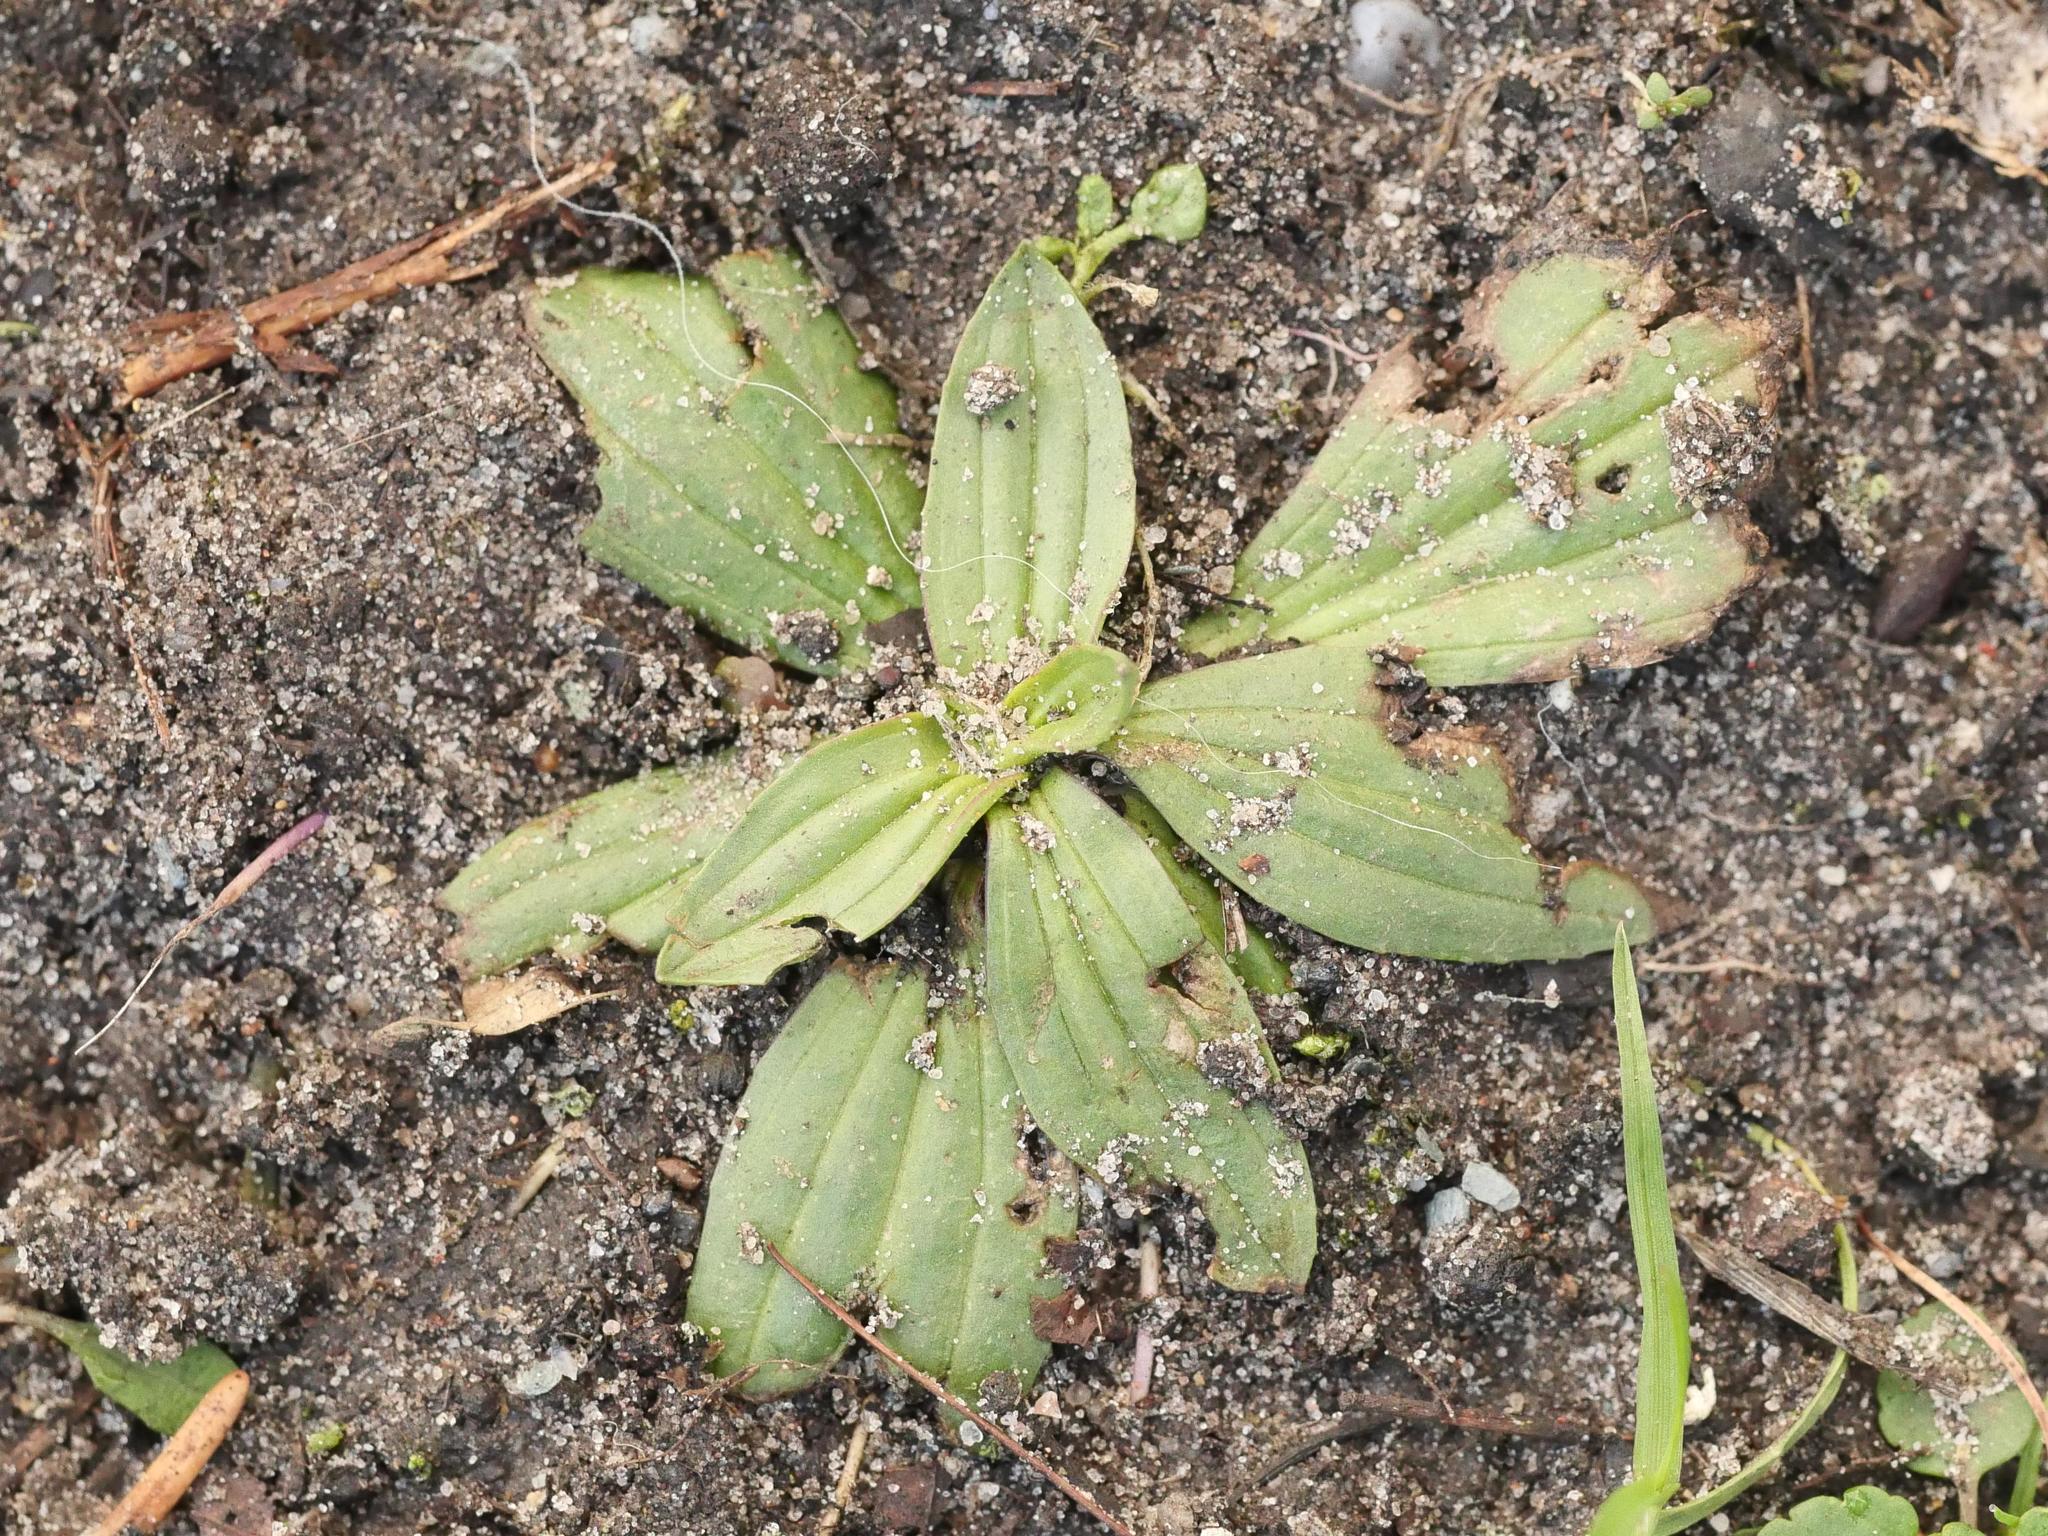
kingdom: Plantae
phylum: Tracheophyta
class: Magnoliopsida
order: Lamiales
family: Plantaginaceae
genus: Plantago
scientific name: Plantago lanceolata
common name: Ribwort plantain
